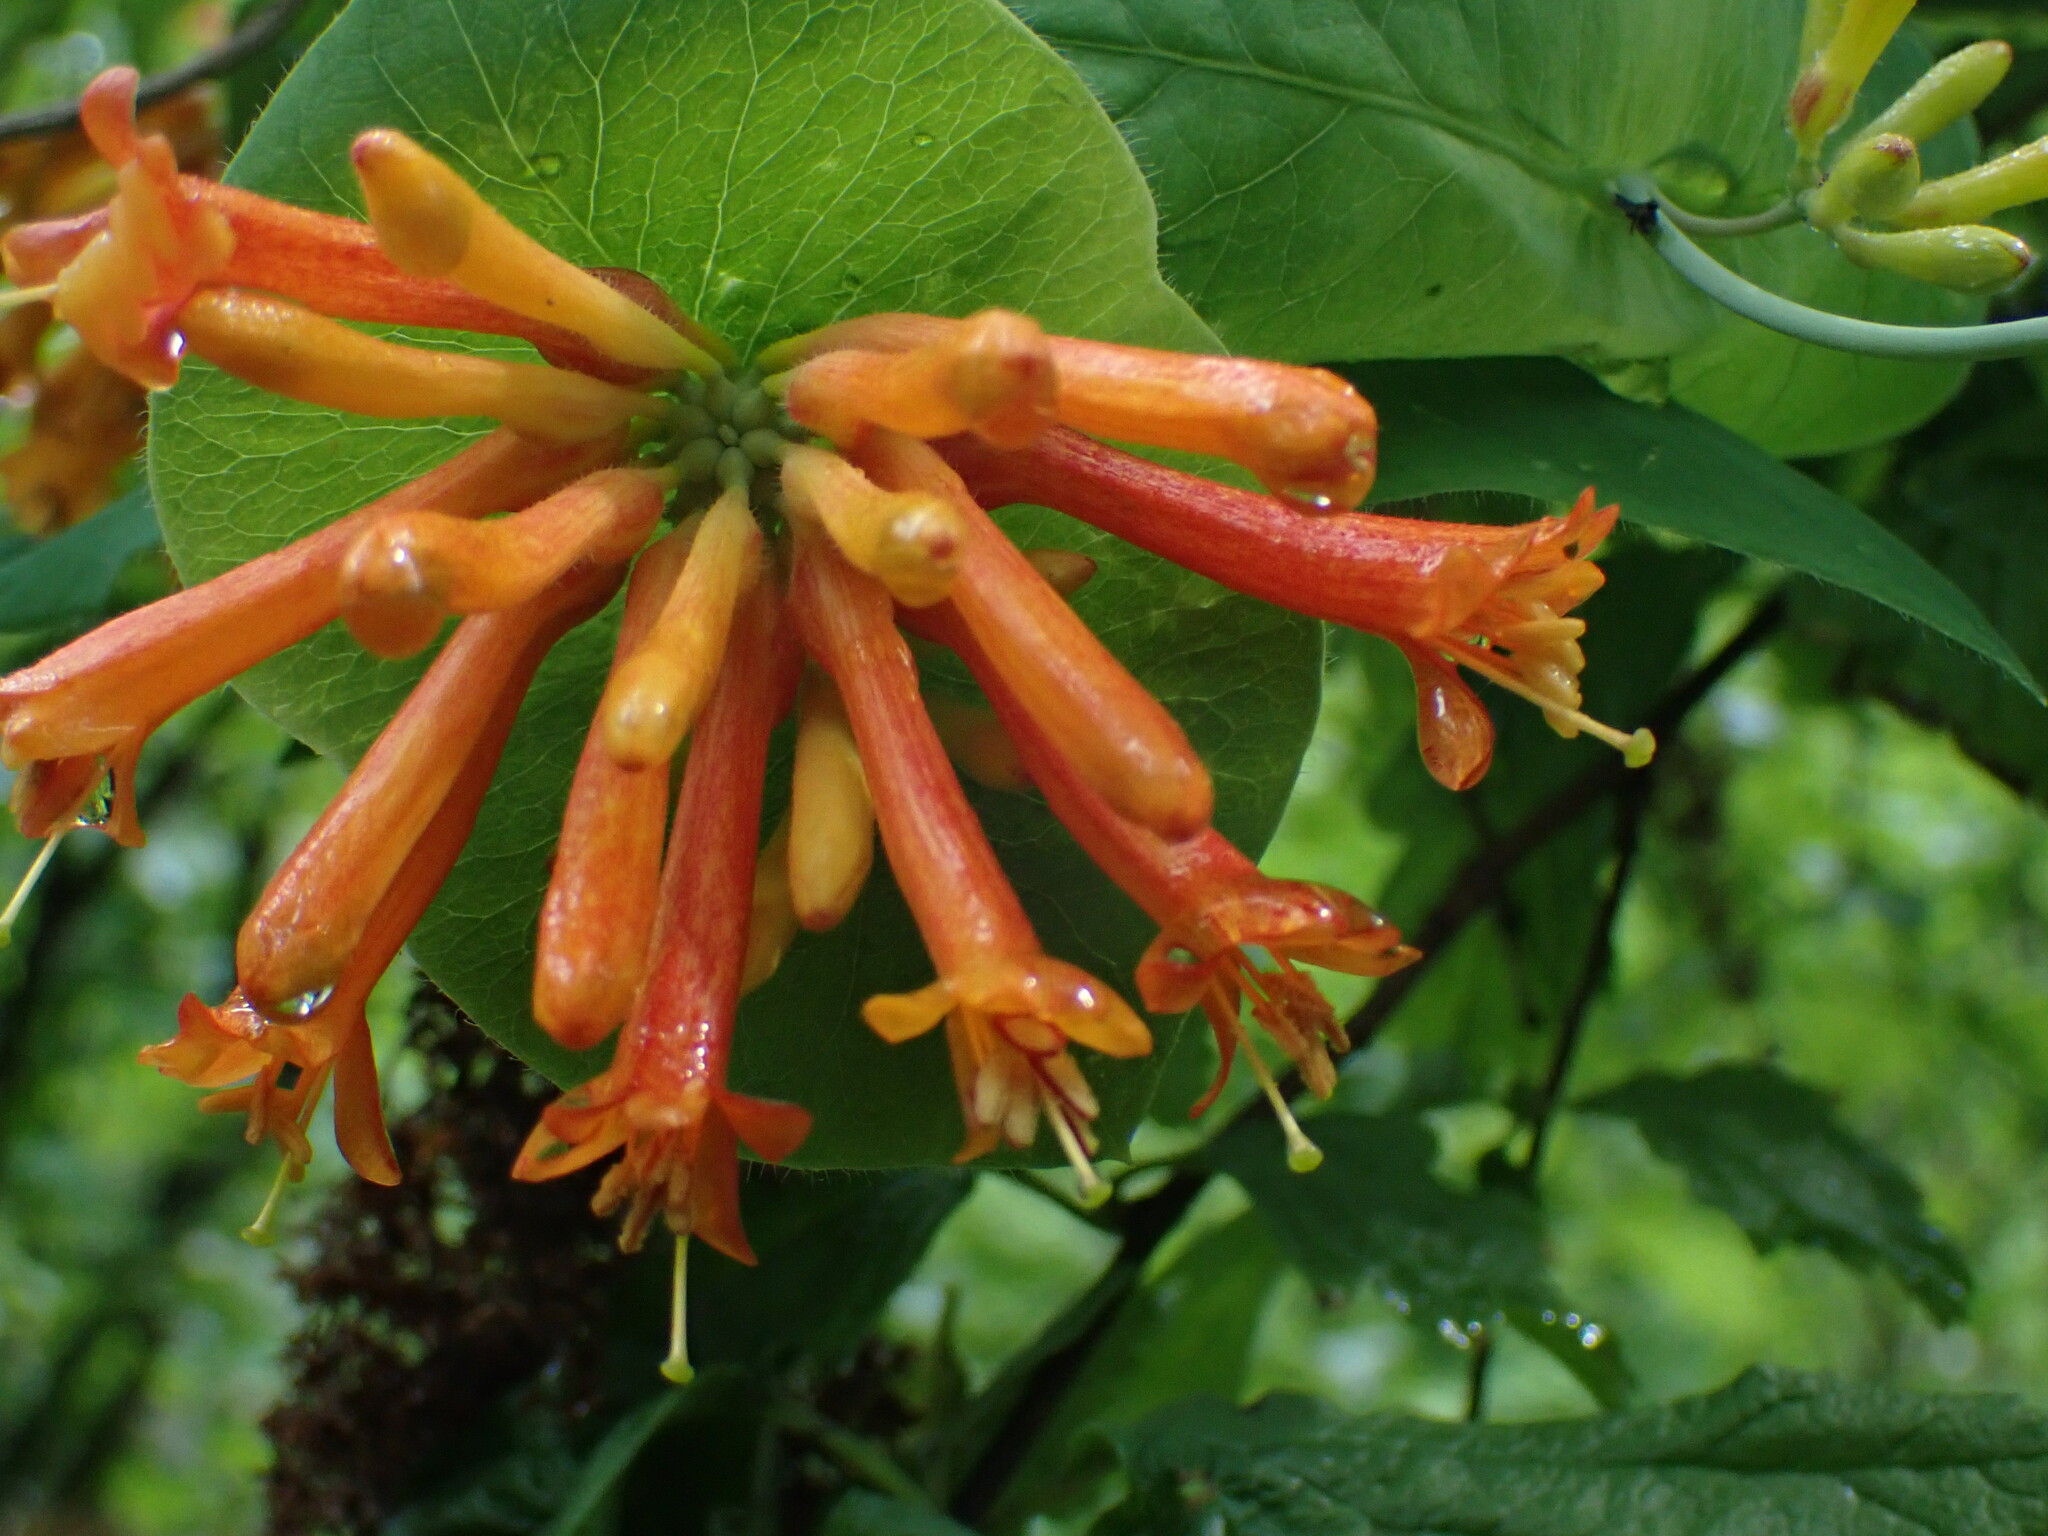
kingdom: Plantae
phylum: Tracheophyta
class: Magnoliopsida
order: Dipsacales
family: Caprifoliaceae
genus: Lonicera
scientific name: Lonicera ciliosa
